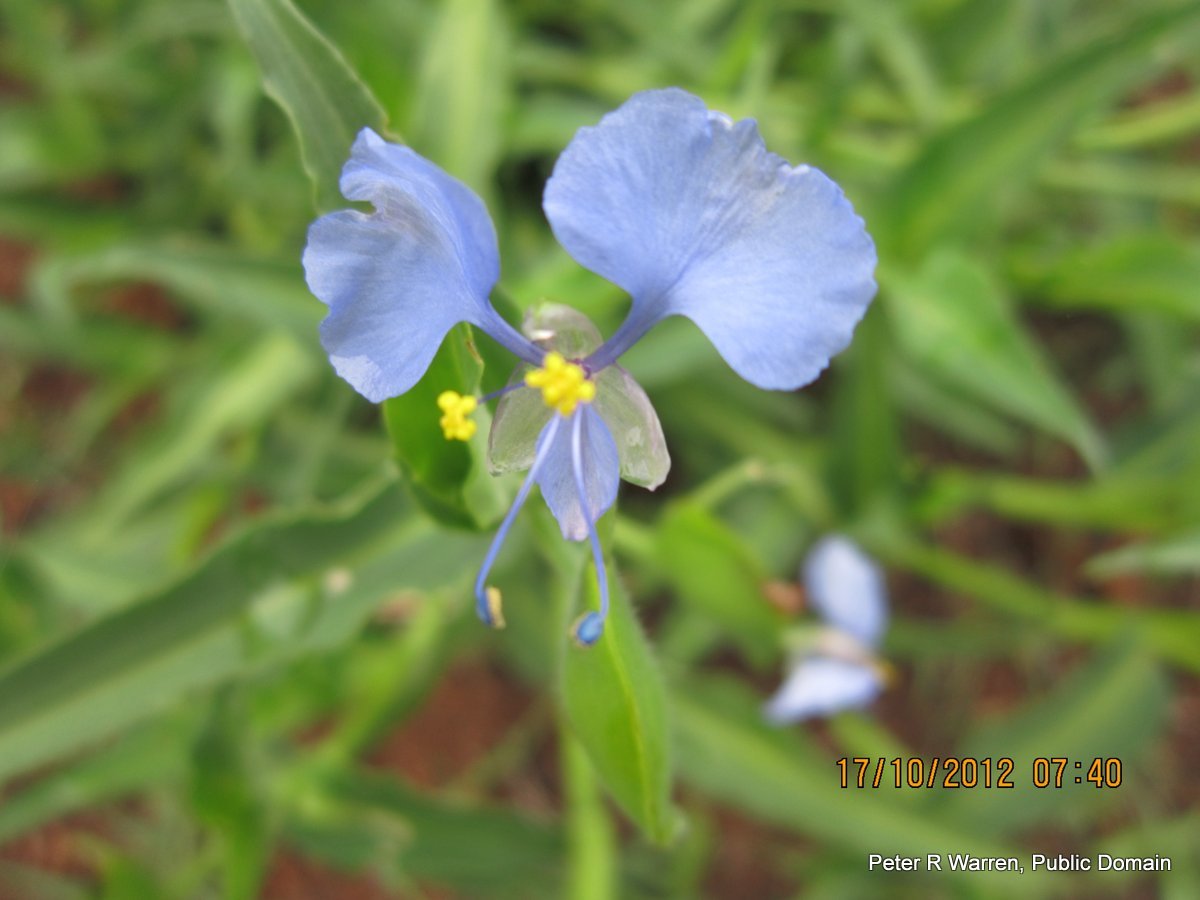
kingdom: Plantae
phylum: Tracheophyta
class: Liliopsida
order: Commelinales
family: Commelinaceae
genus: Commelina
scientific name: Commelina eckloniana
